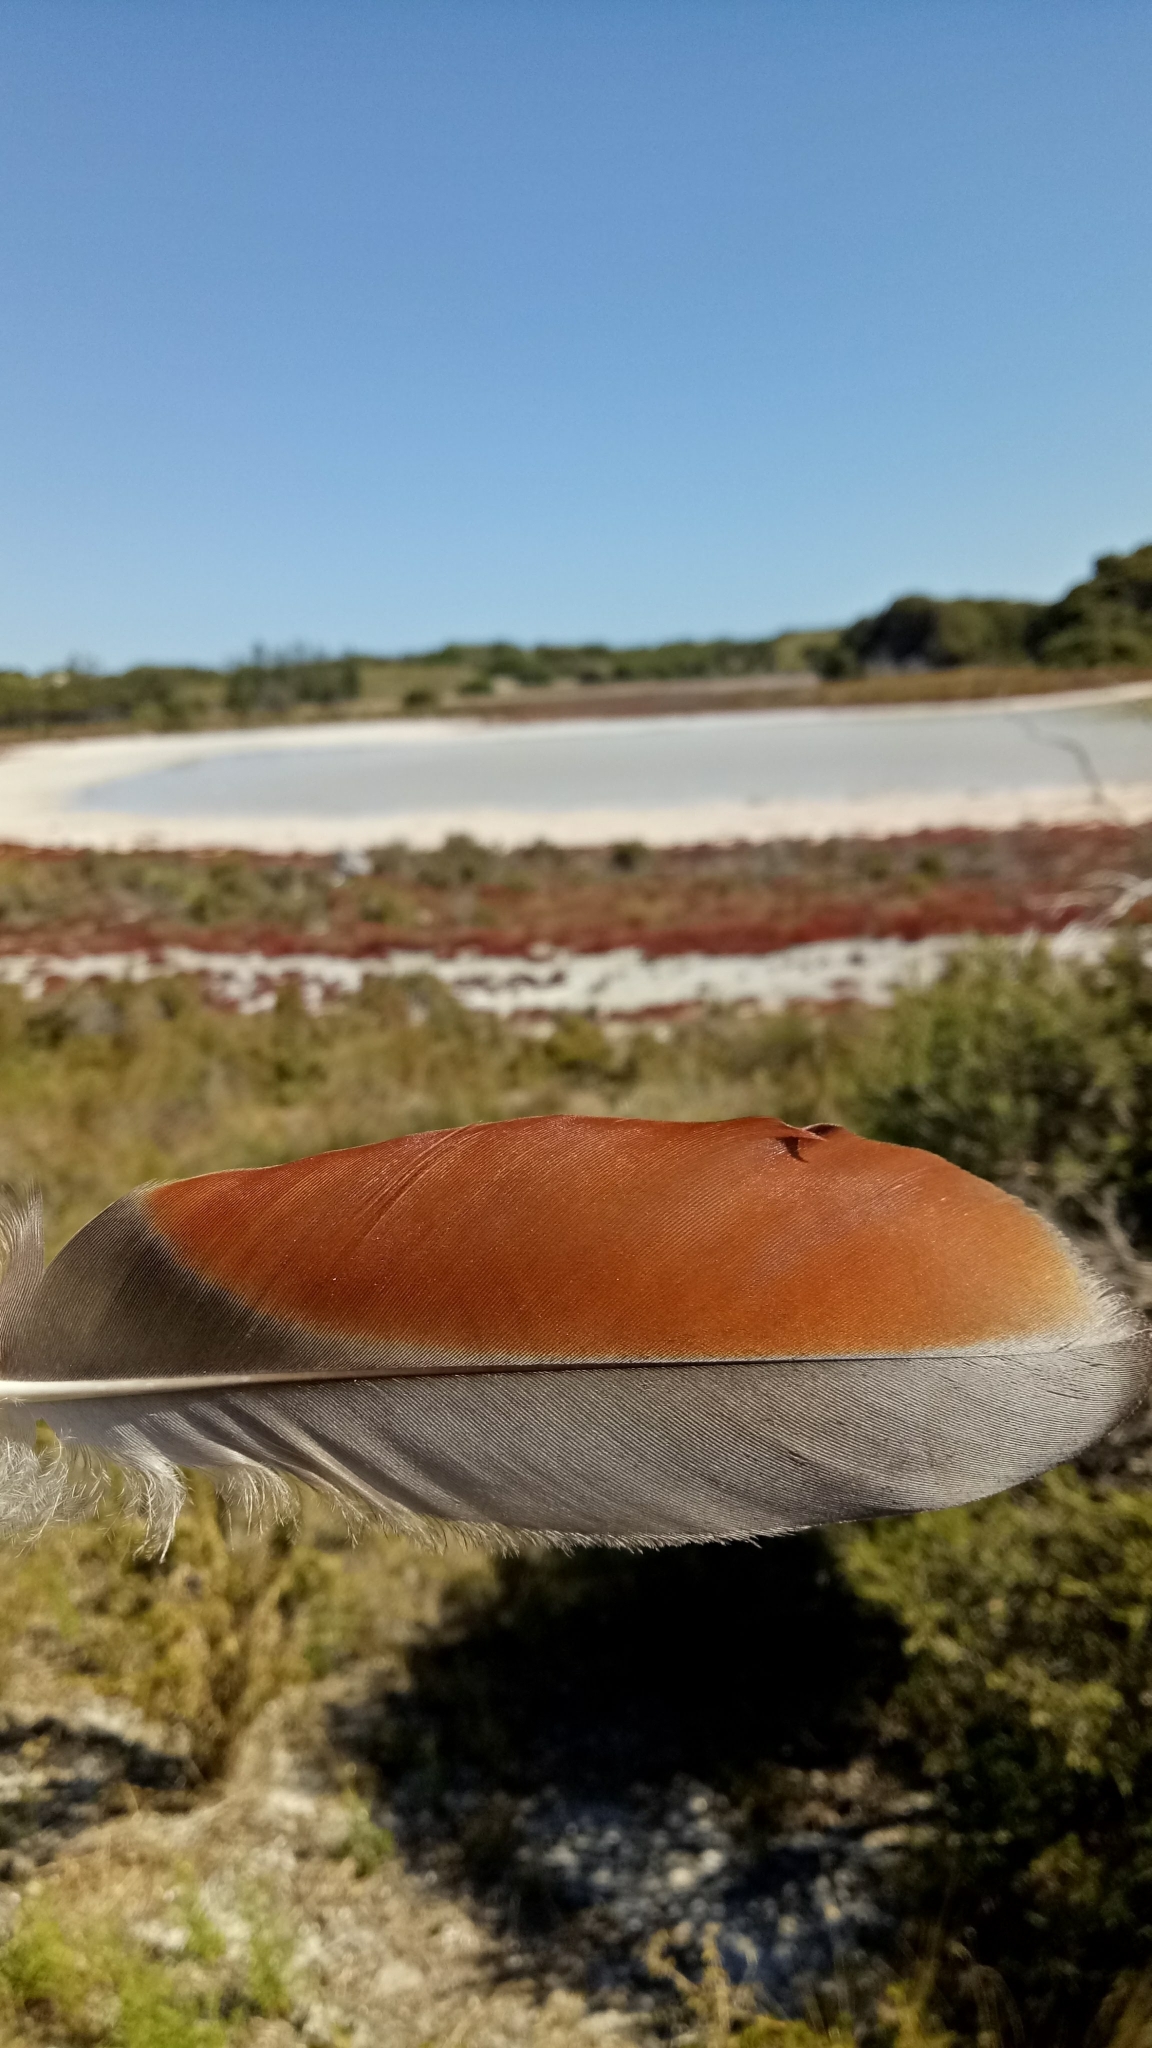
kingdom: Animalia
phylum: Chordata
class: Aves
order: Anseriformes
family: Anatidae
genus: Tadorna
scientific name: Tadorna tadornoides
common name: Australian shelduck
